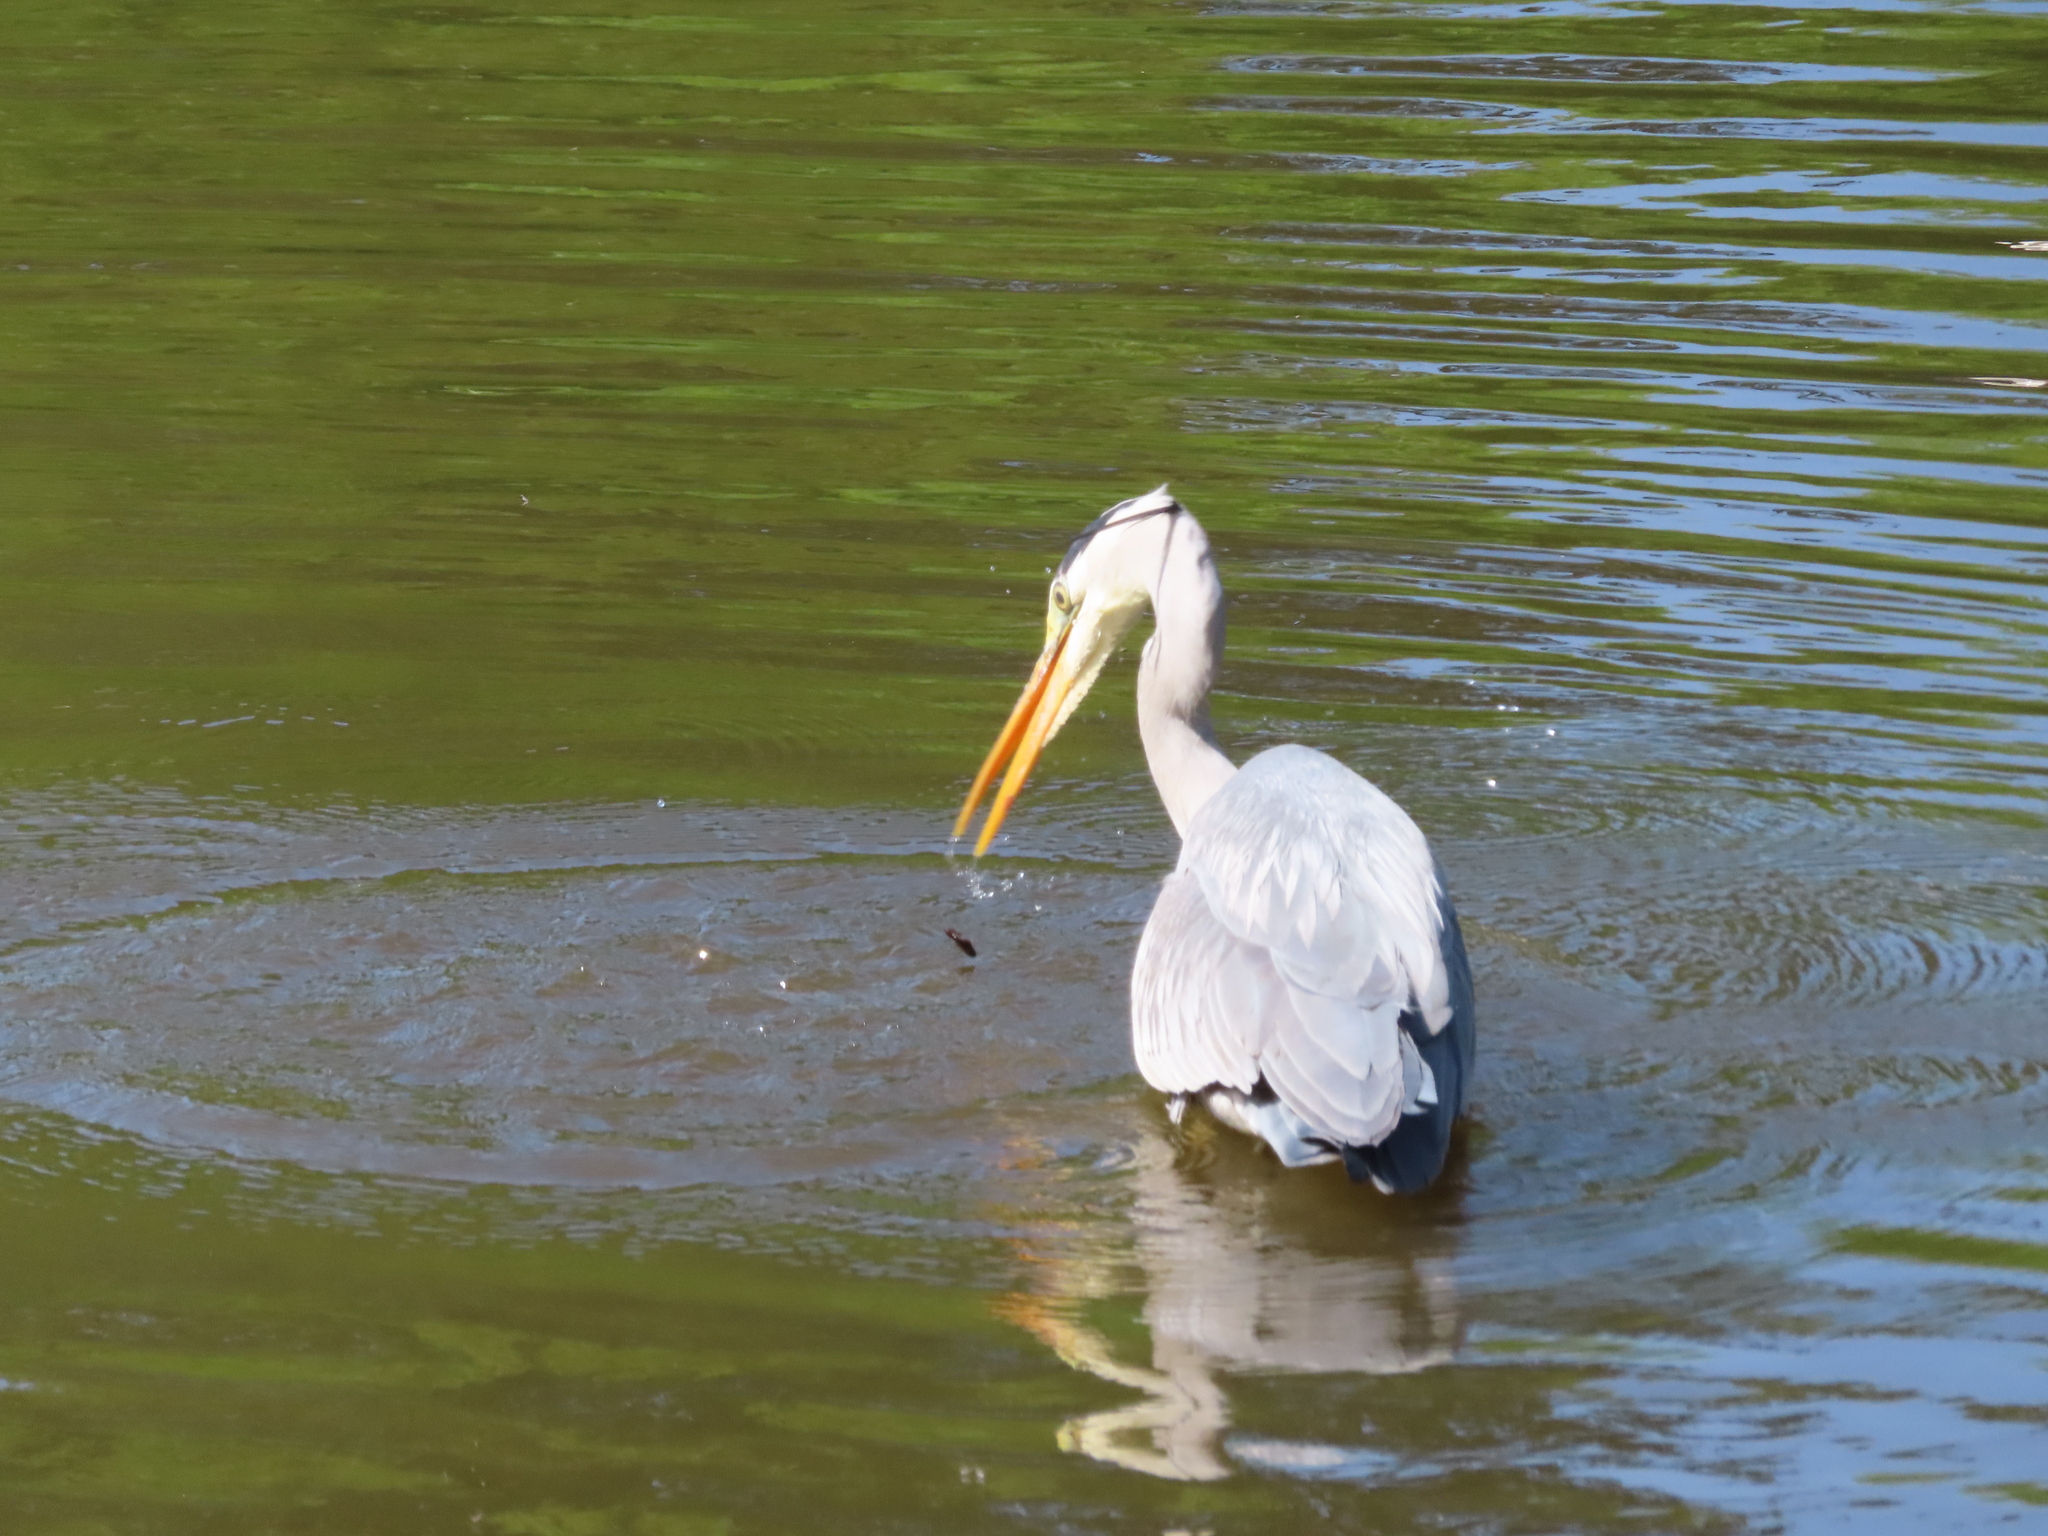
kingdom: Animalia
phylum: Chordata
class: Aves
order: Pelecaniformes
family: Ardeidae
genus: Ardea
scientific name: Ardea cinerea
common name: Grey heron
